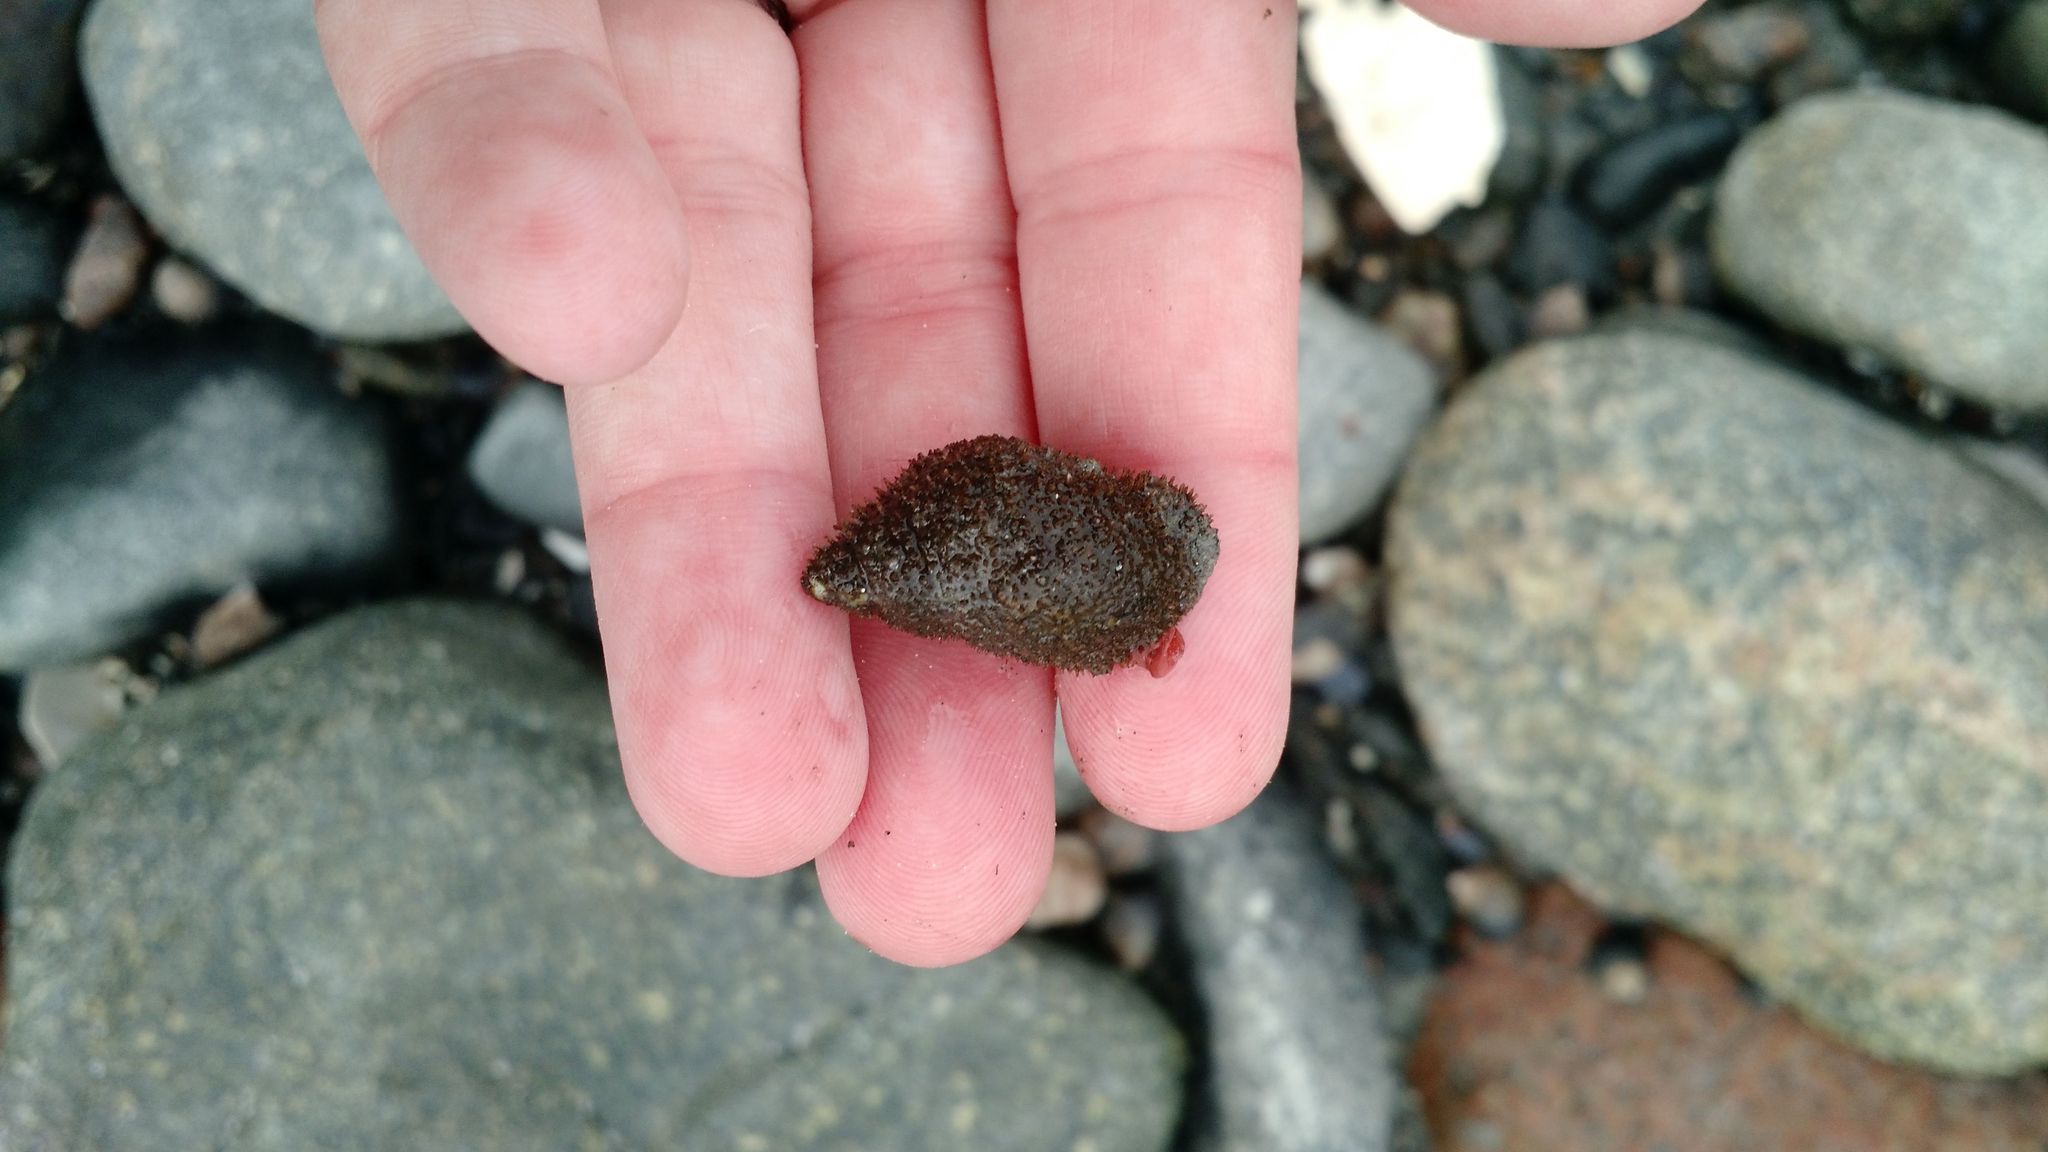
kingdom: Animalia
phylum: Mollusca
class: Gastropoda
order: Neogastropoda
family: Muricidae
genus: Nucella
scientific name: Nucella lapillus
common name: Dog whelk
